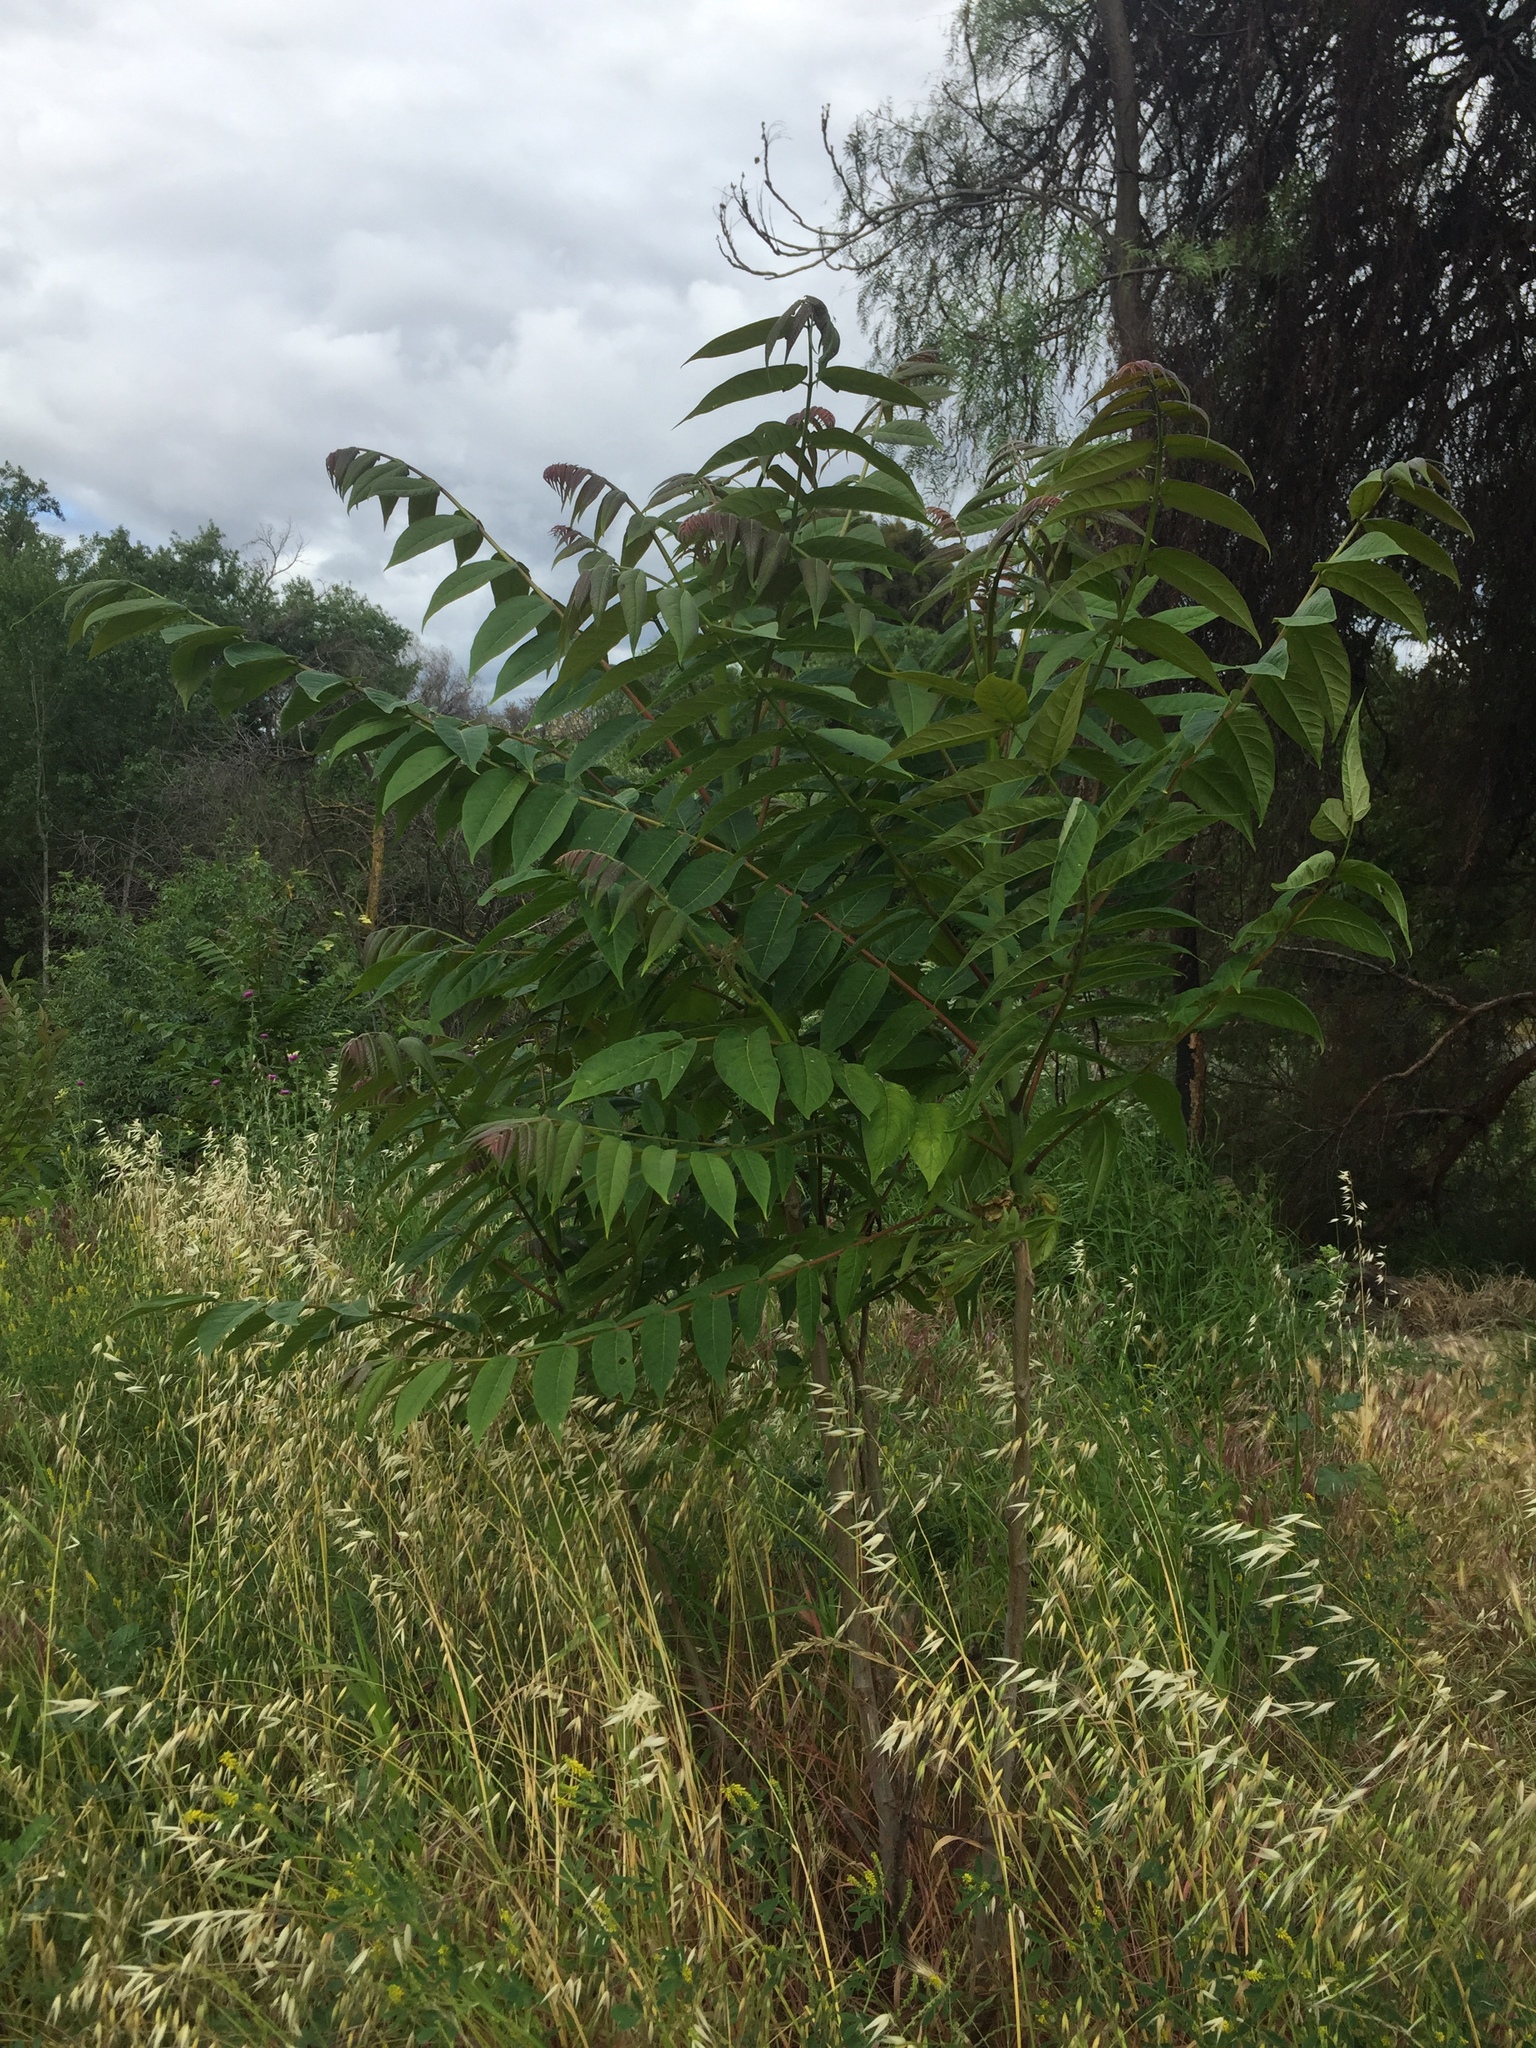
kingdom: Plantae
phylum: Tracheophyta
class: Magnoliopsida
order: Sapindales
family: Simaroubaceae
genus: Ailanthus
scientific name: Ailanthus altissima
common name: Tree-of-heaven
